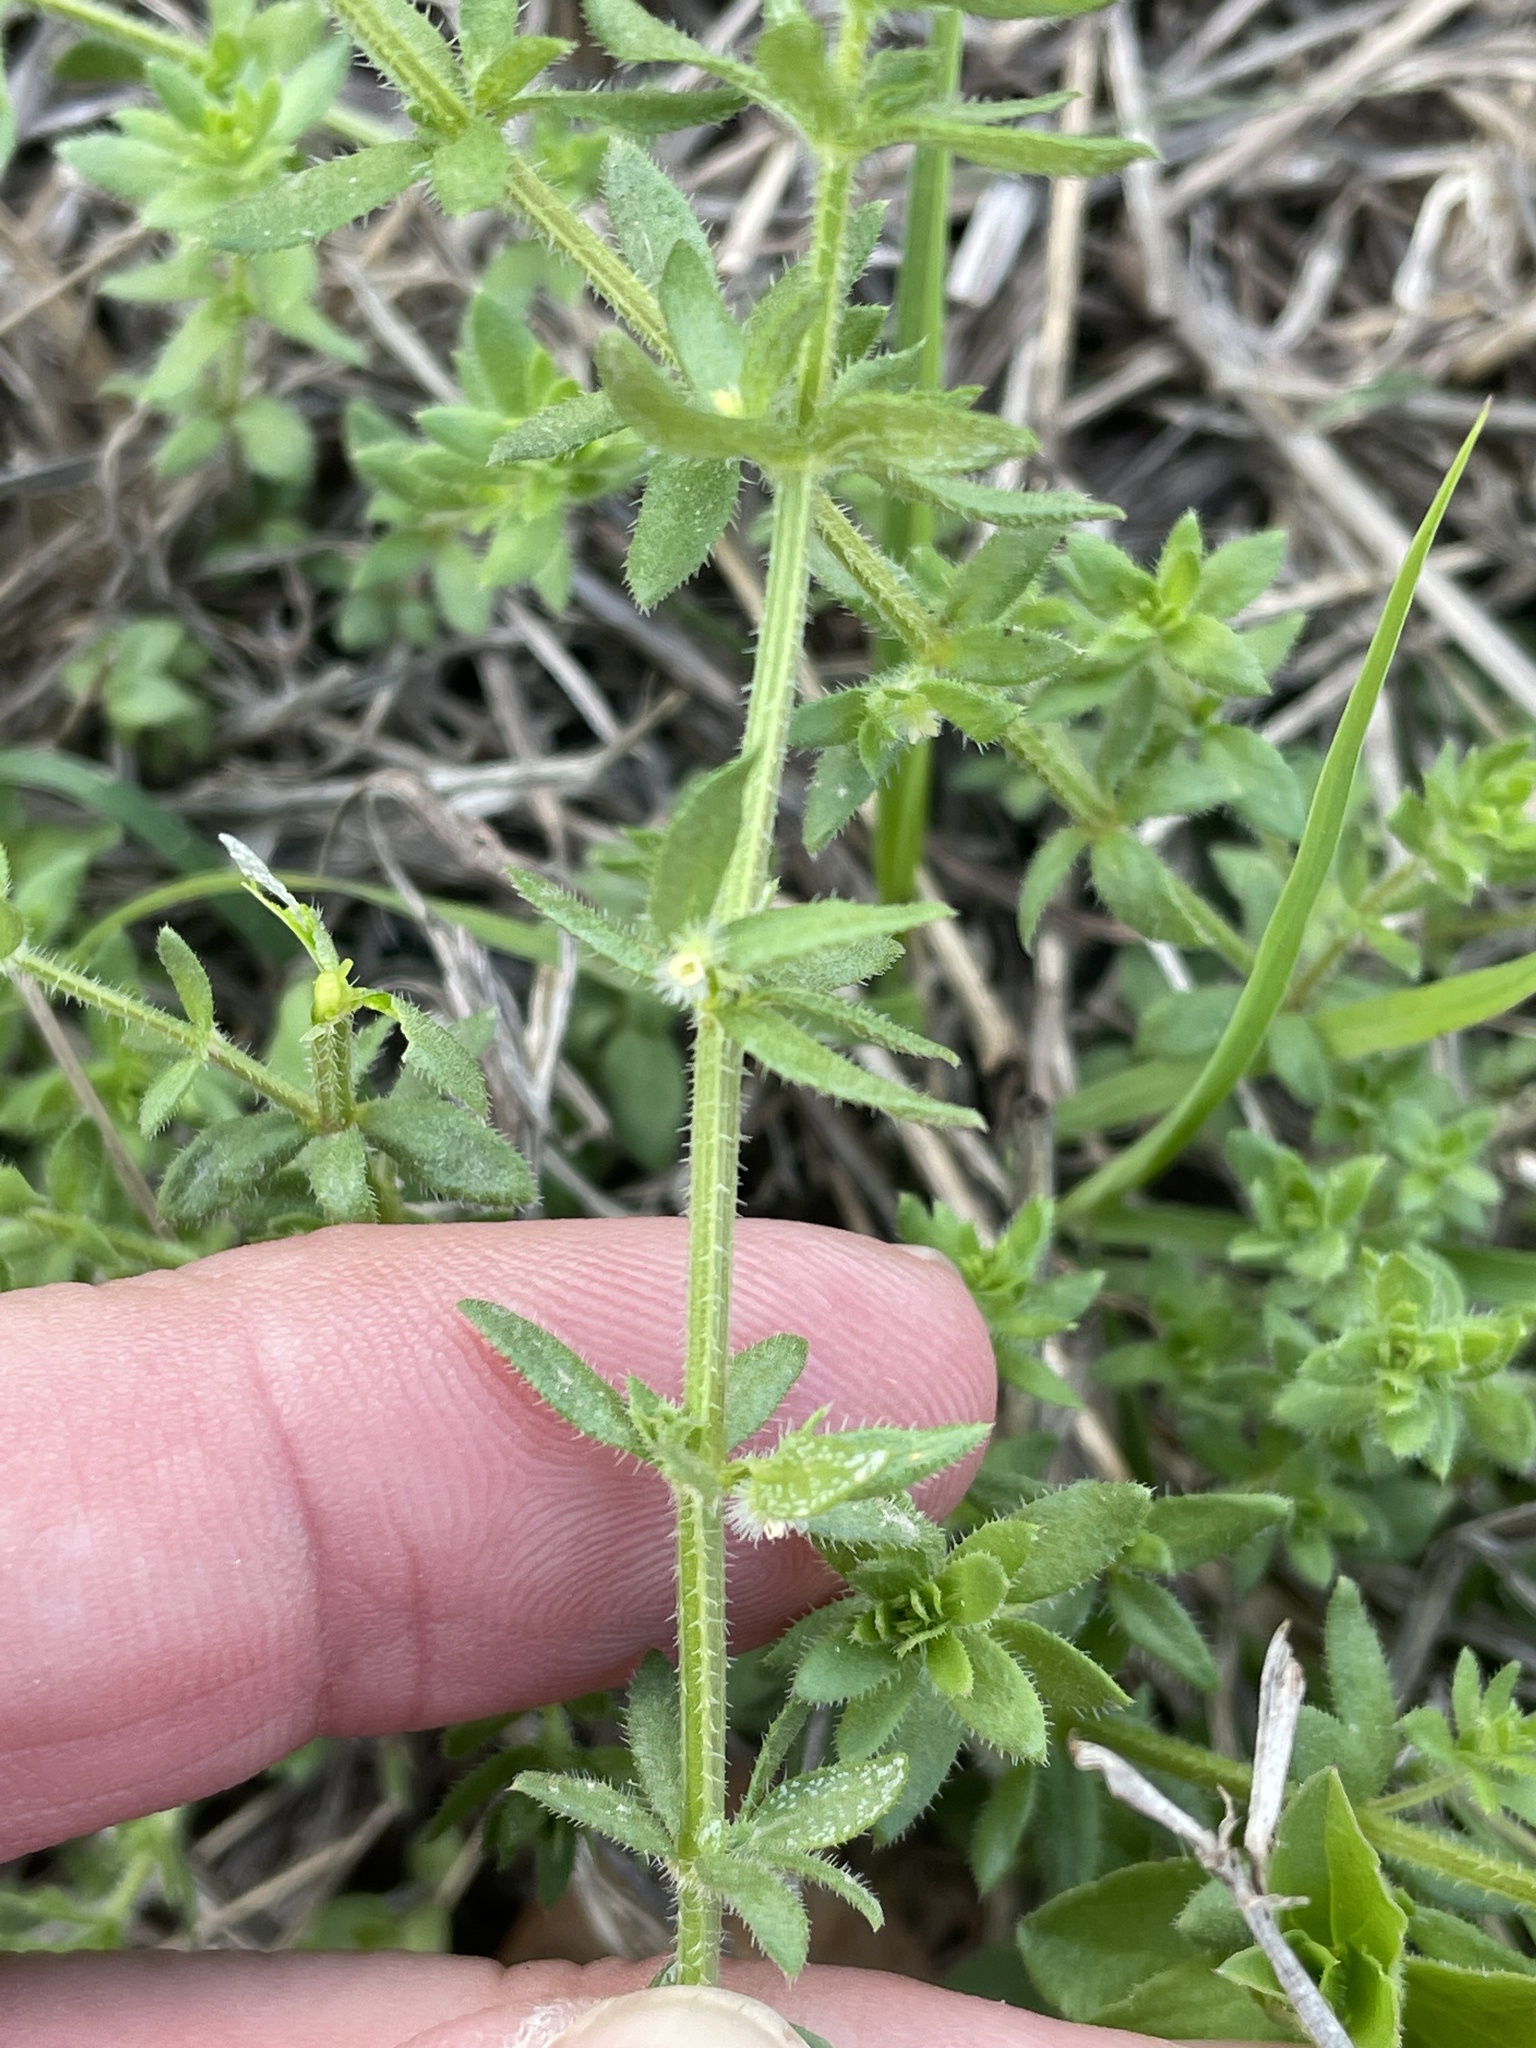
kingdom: Plantae
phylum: Tracheophyta
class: Magnoliopsida
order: Gentianales
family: Rubiaceae
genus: Galium
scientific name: Galium virgatum
